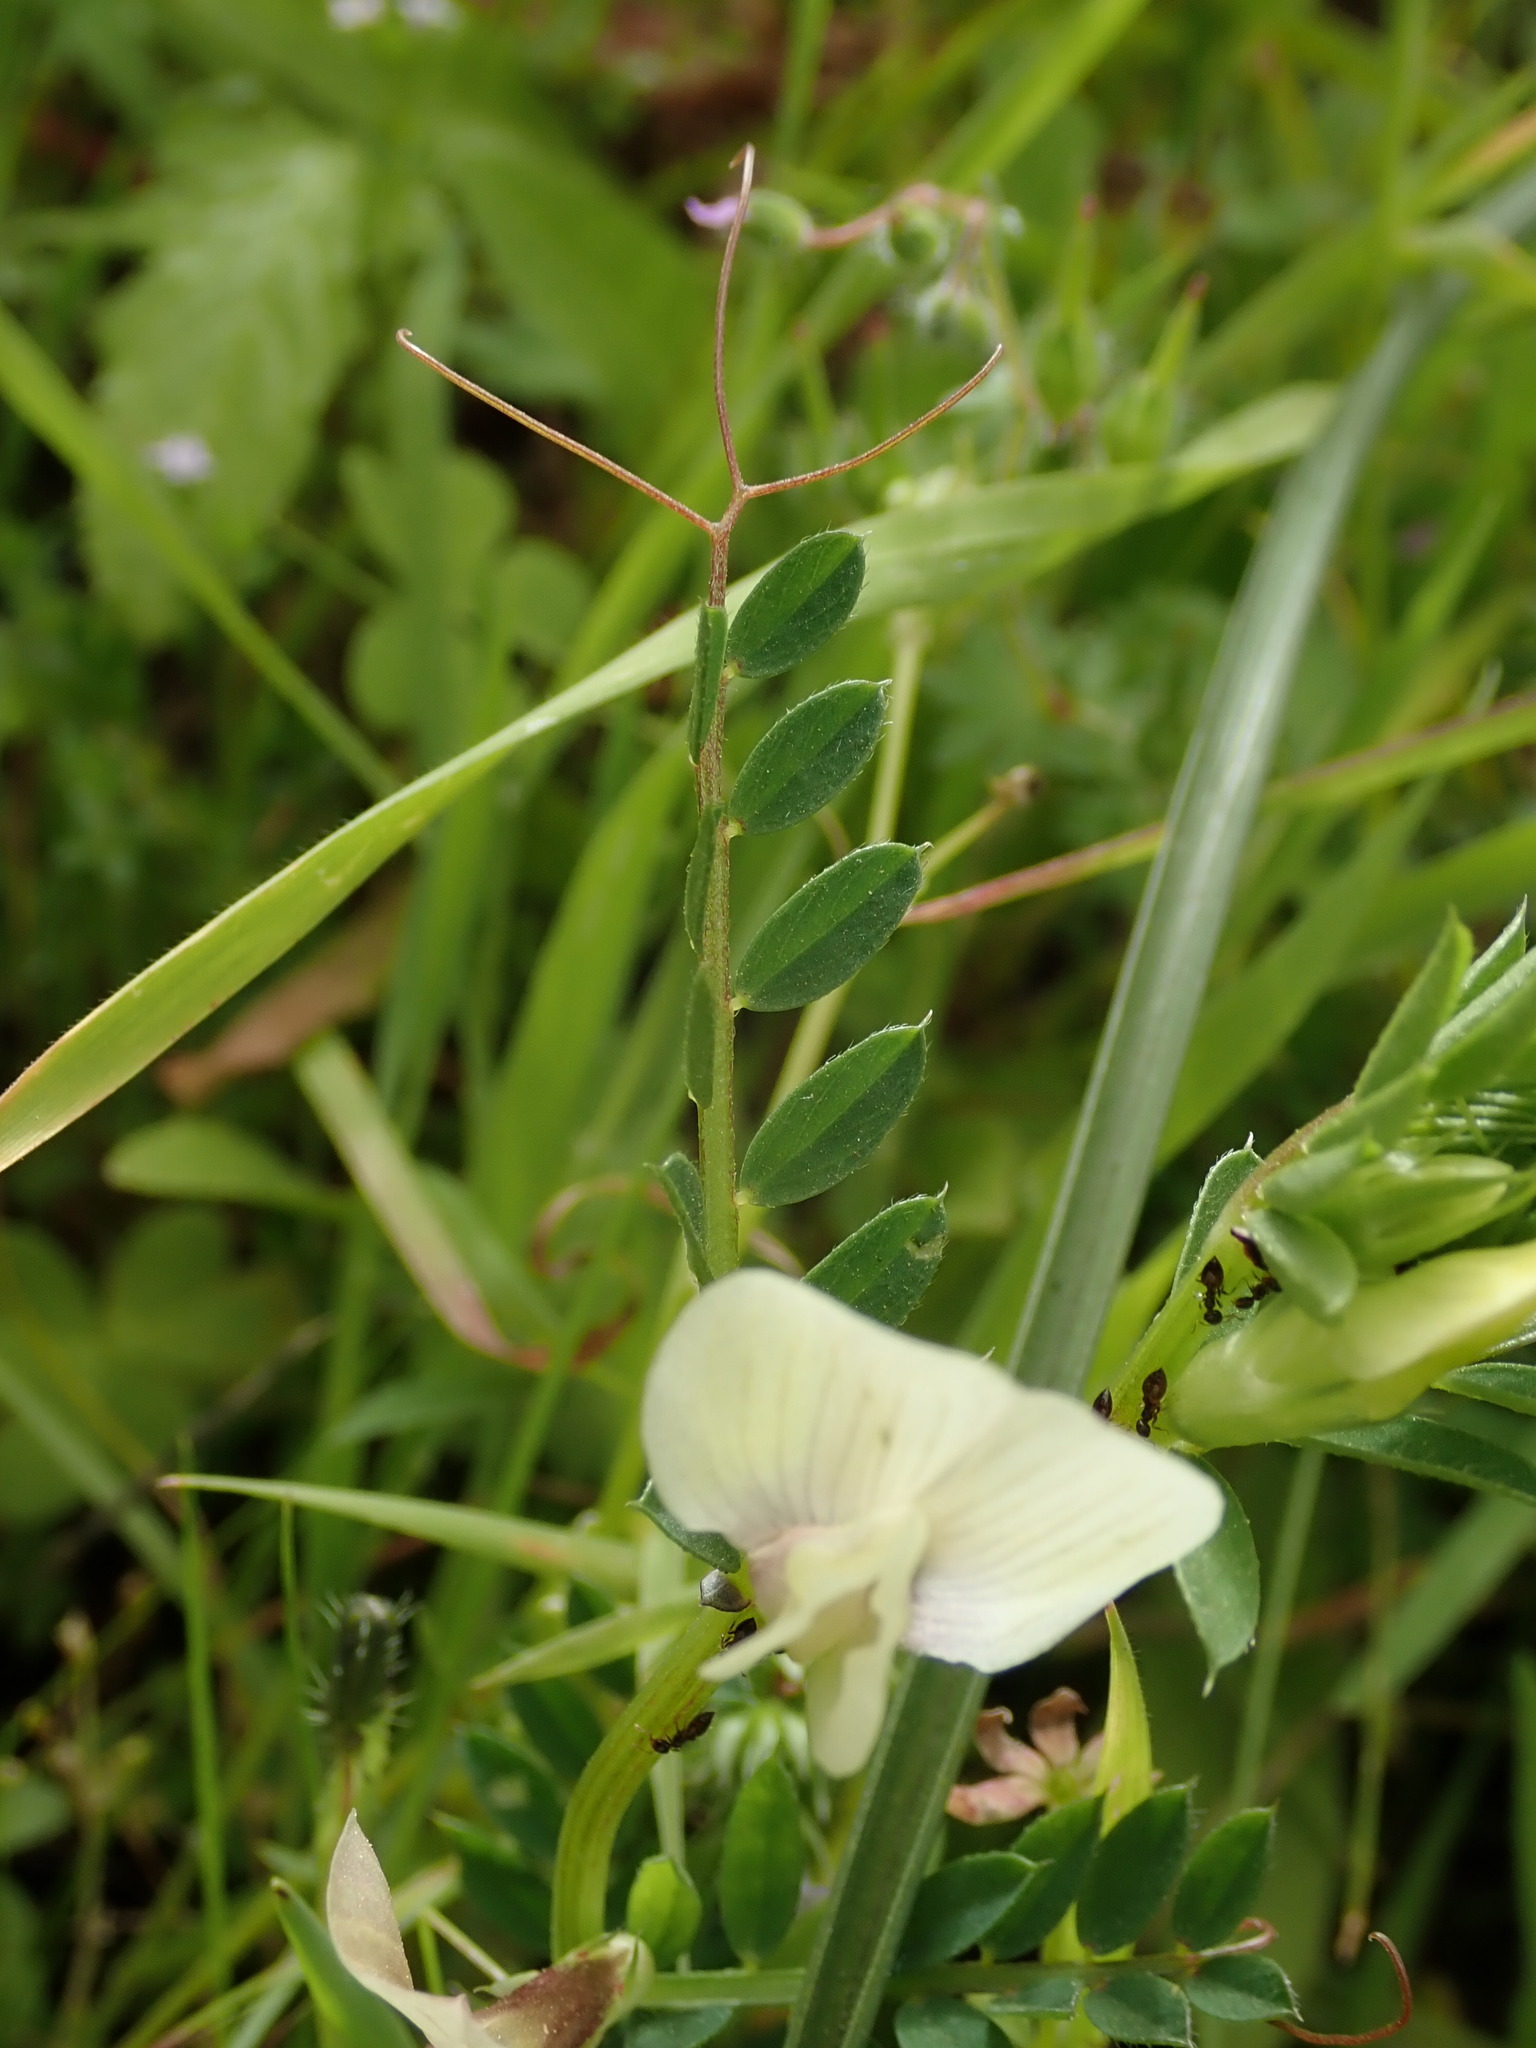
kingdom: Plantae
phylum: Tracheophyta
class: Magnoliopsida
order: Fabales
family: Fabaceae
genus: Vicia
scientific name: Vicia lutea
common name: Smooth yellow vetch
